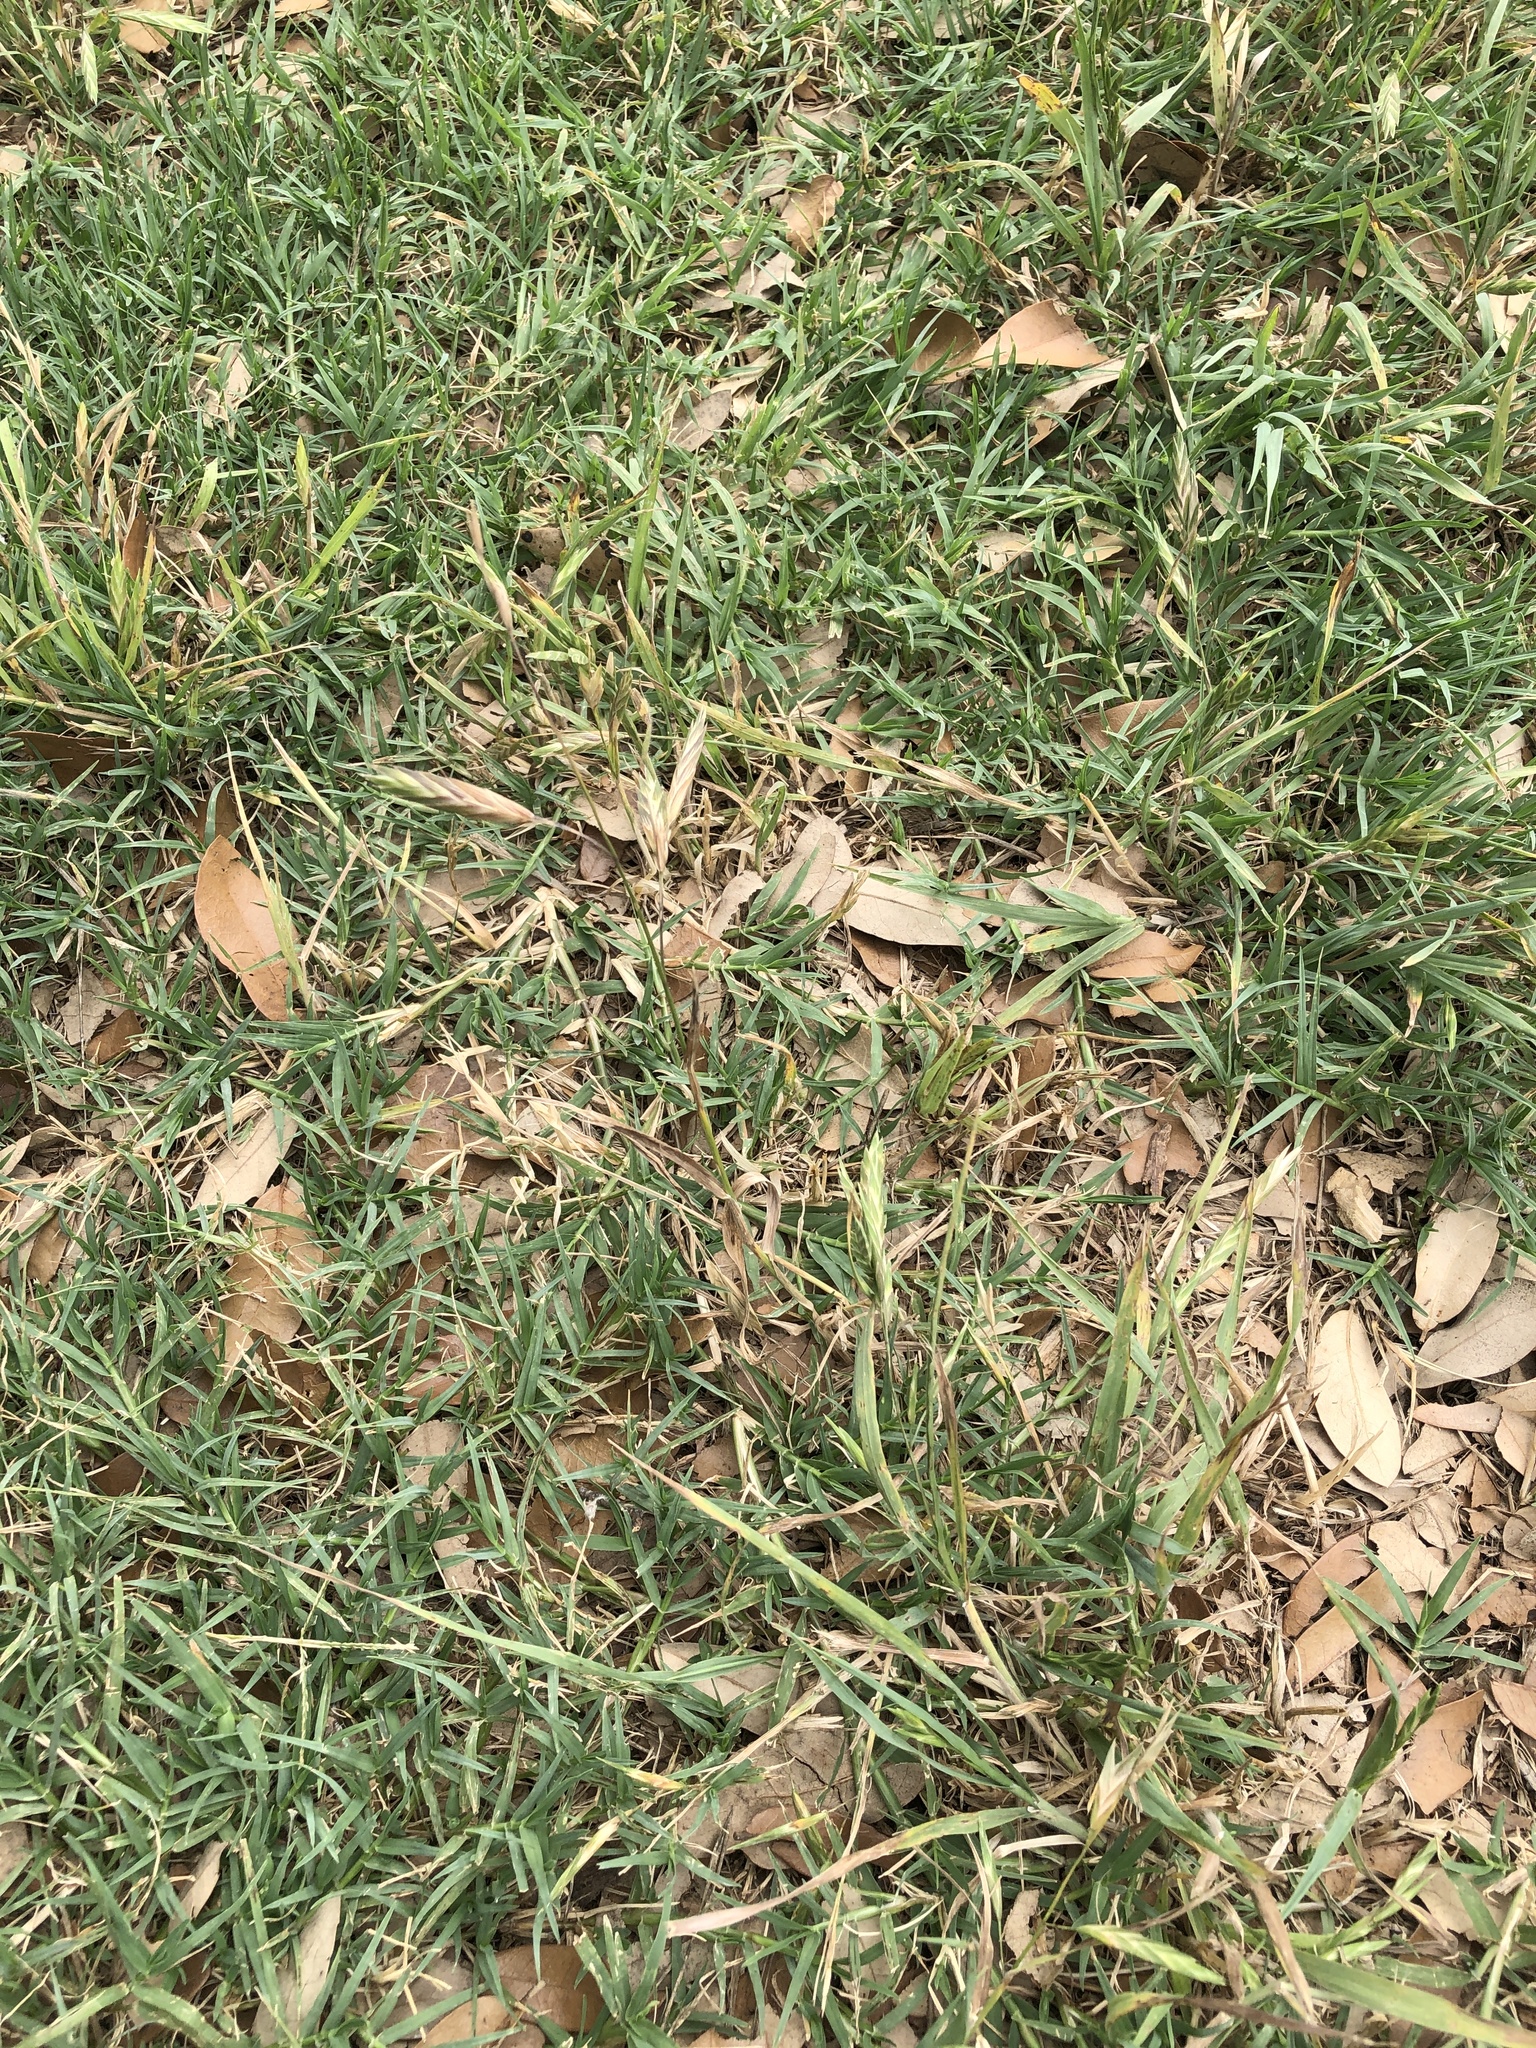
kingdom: Plantae
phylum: Tracheophyta
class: Liliopsida
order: Poales
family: Poaceae
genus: Bromus
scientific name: Bromus catharticus
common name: Rescuegrass
